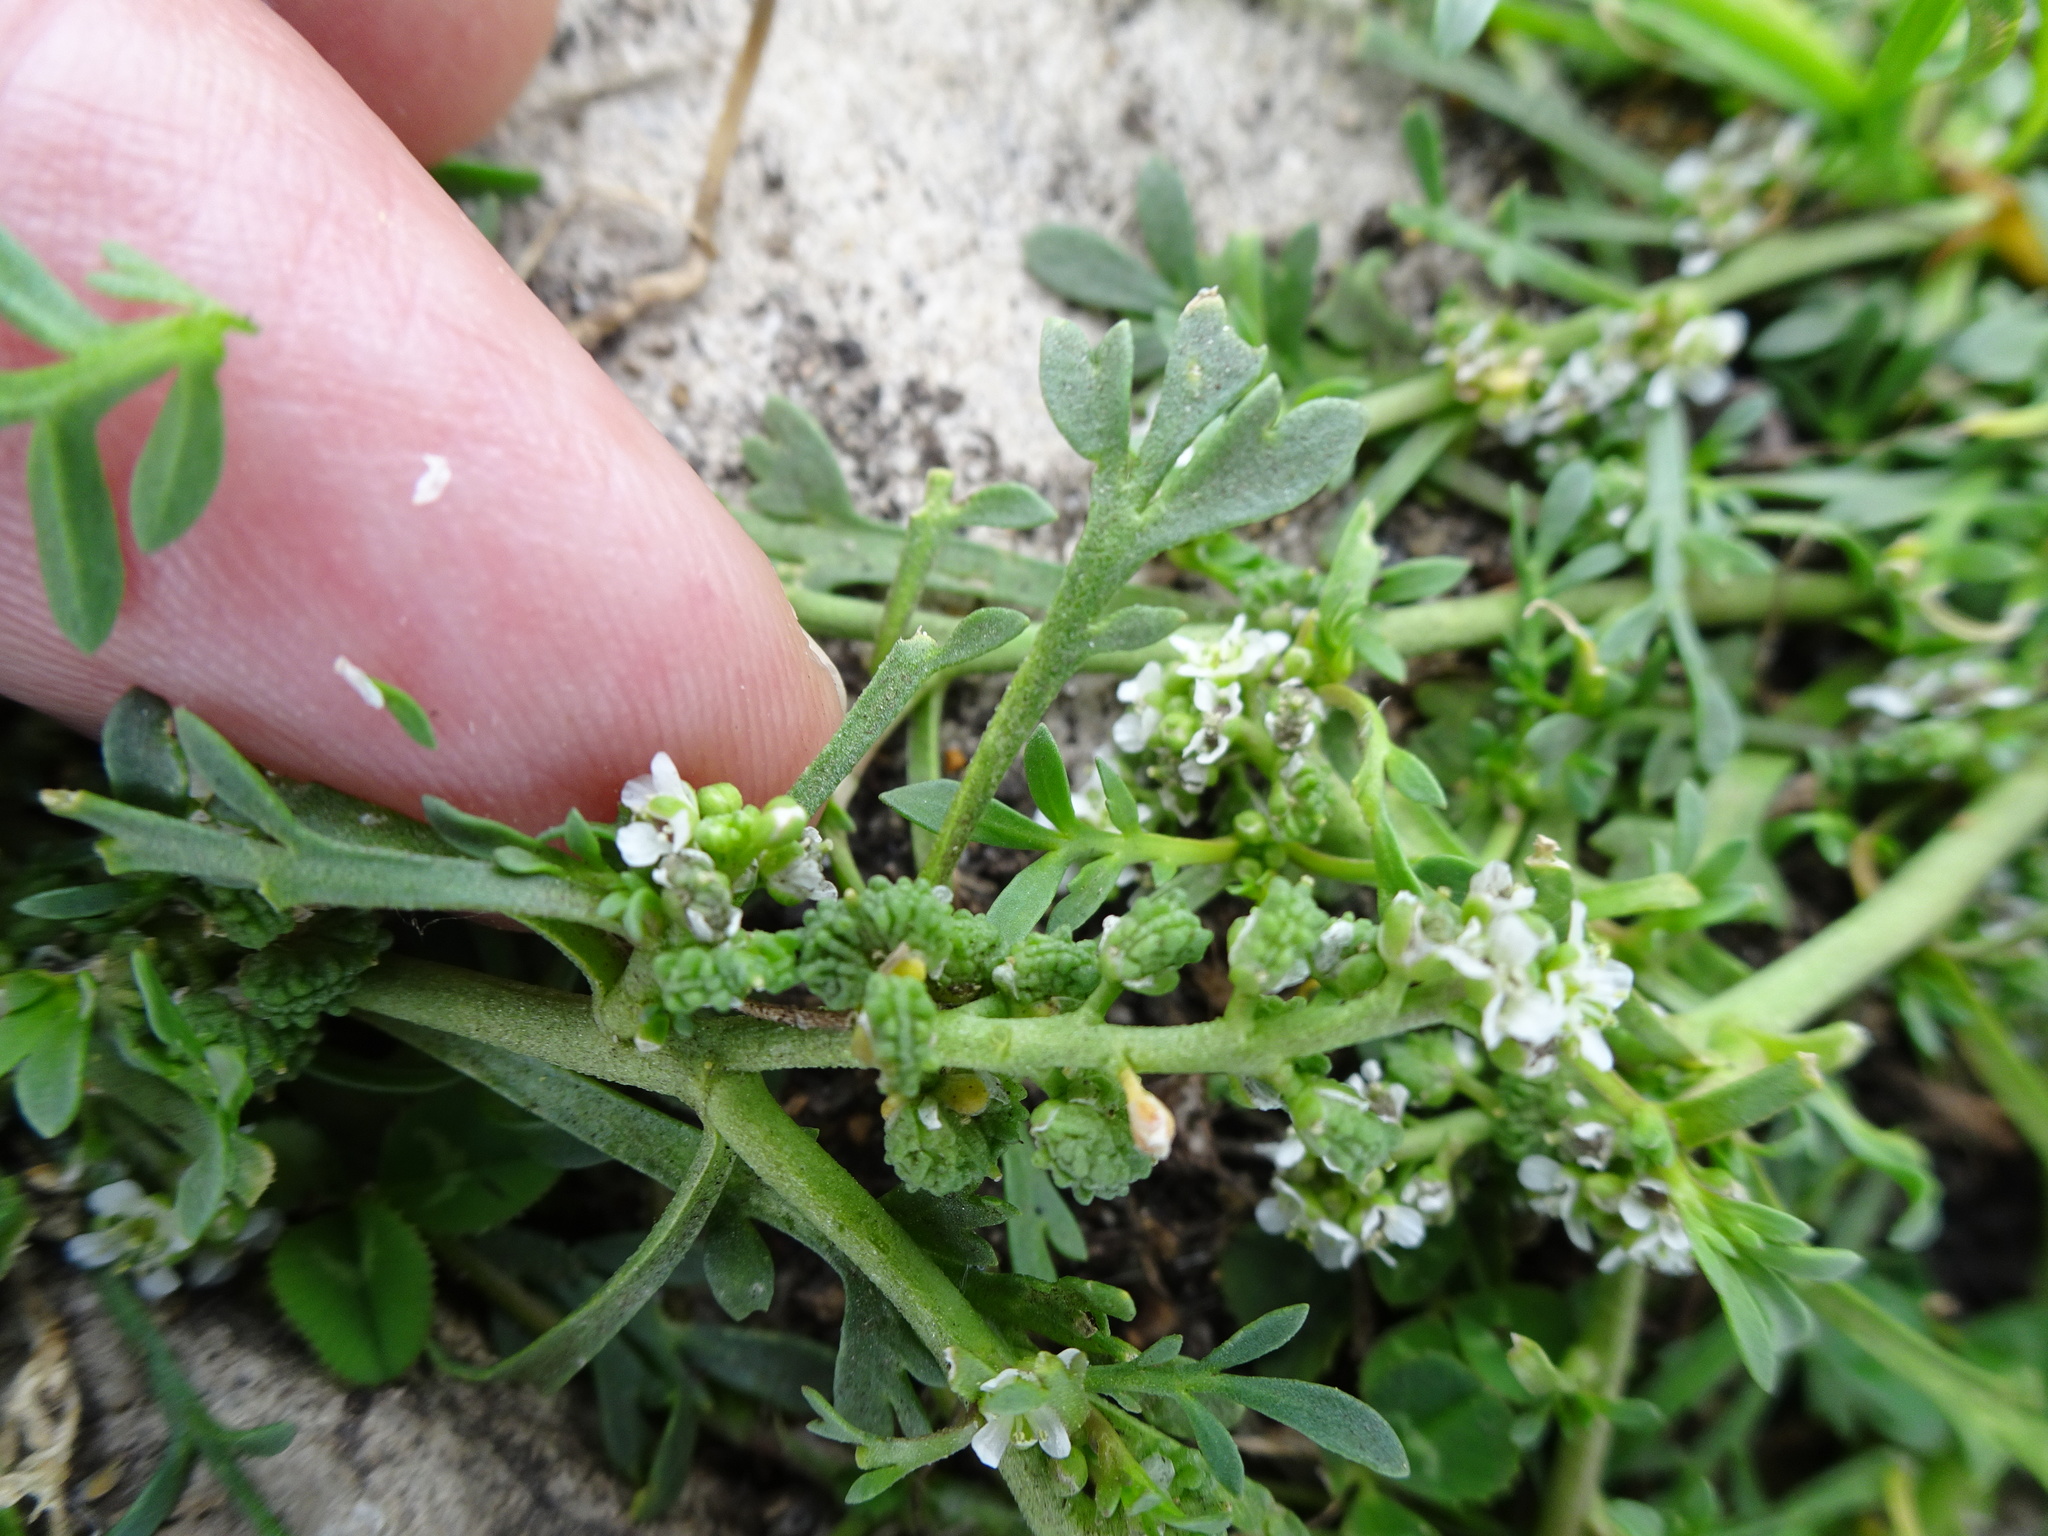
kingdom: Plantae
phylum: Tracheophyta
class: Magnoliopsida
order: Brassicales
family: Brassicaceae
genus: Lepidium
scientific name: Lepidium coronopus
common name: Greater swinecress
